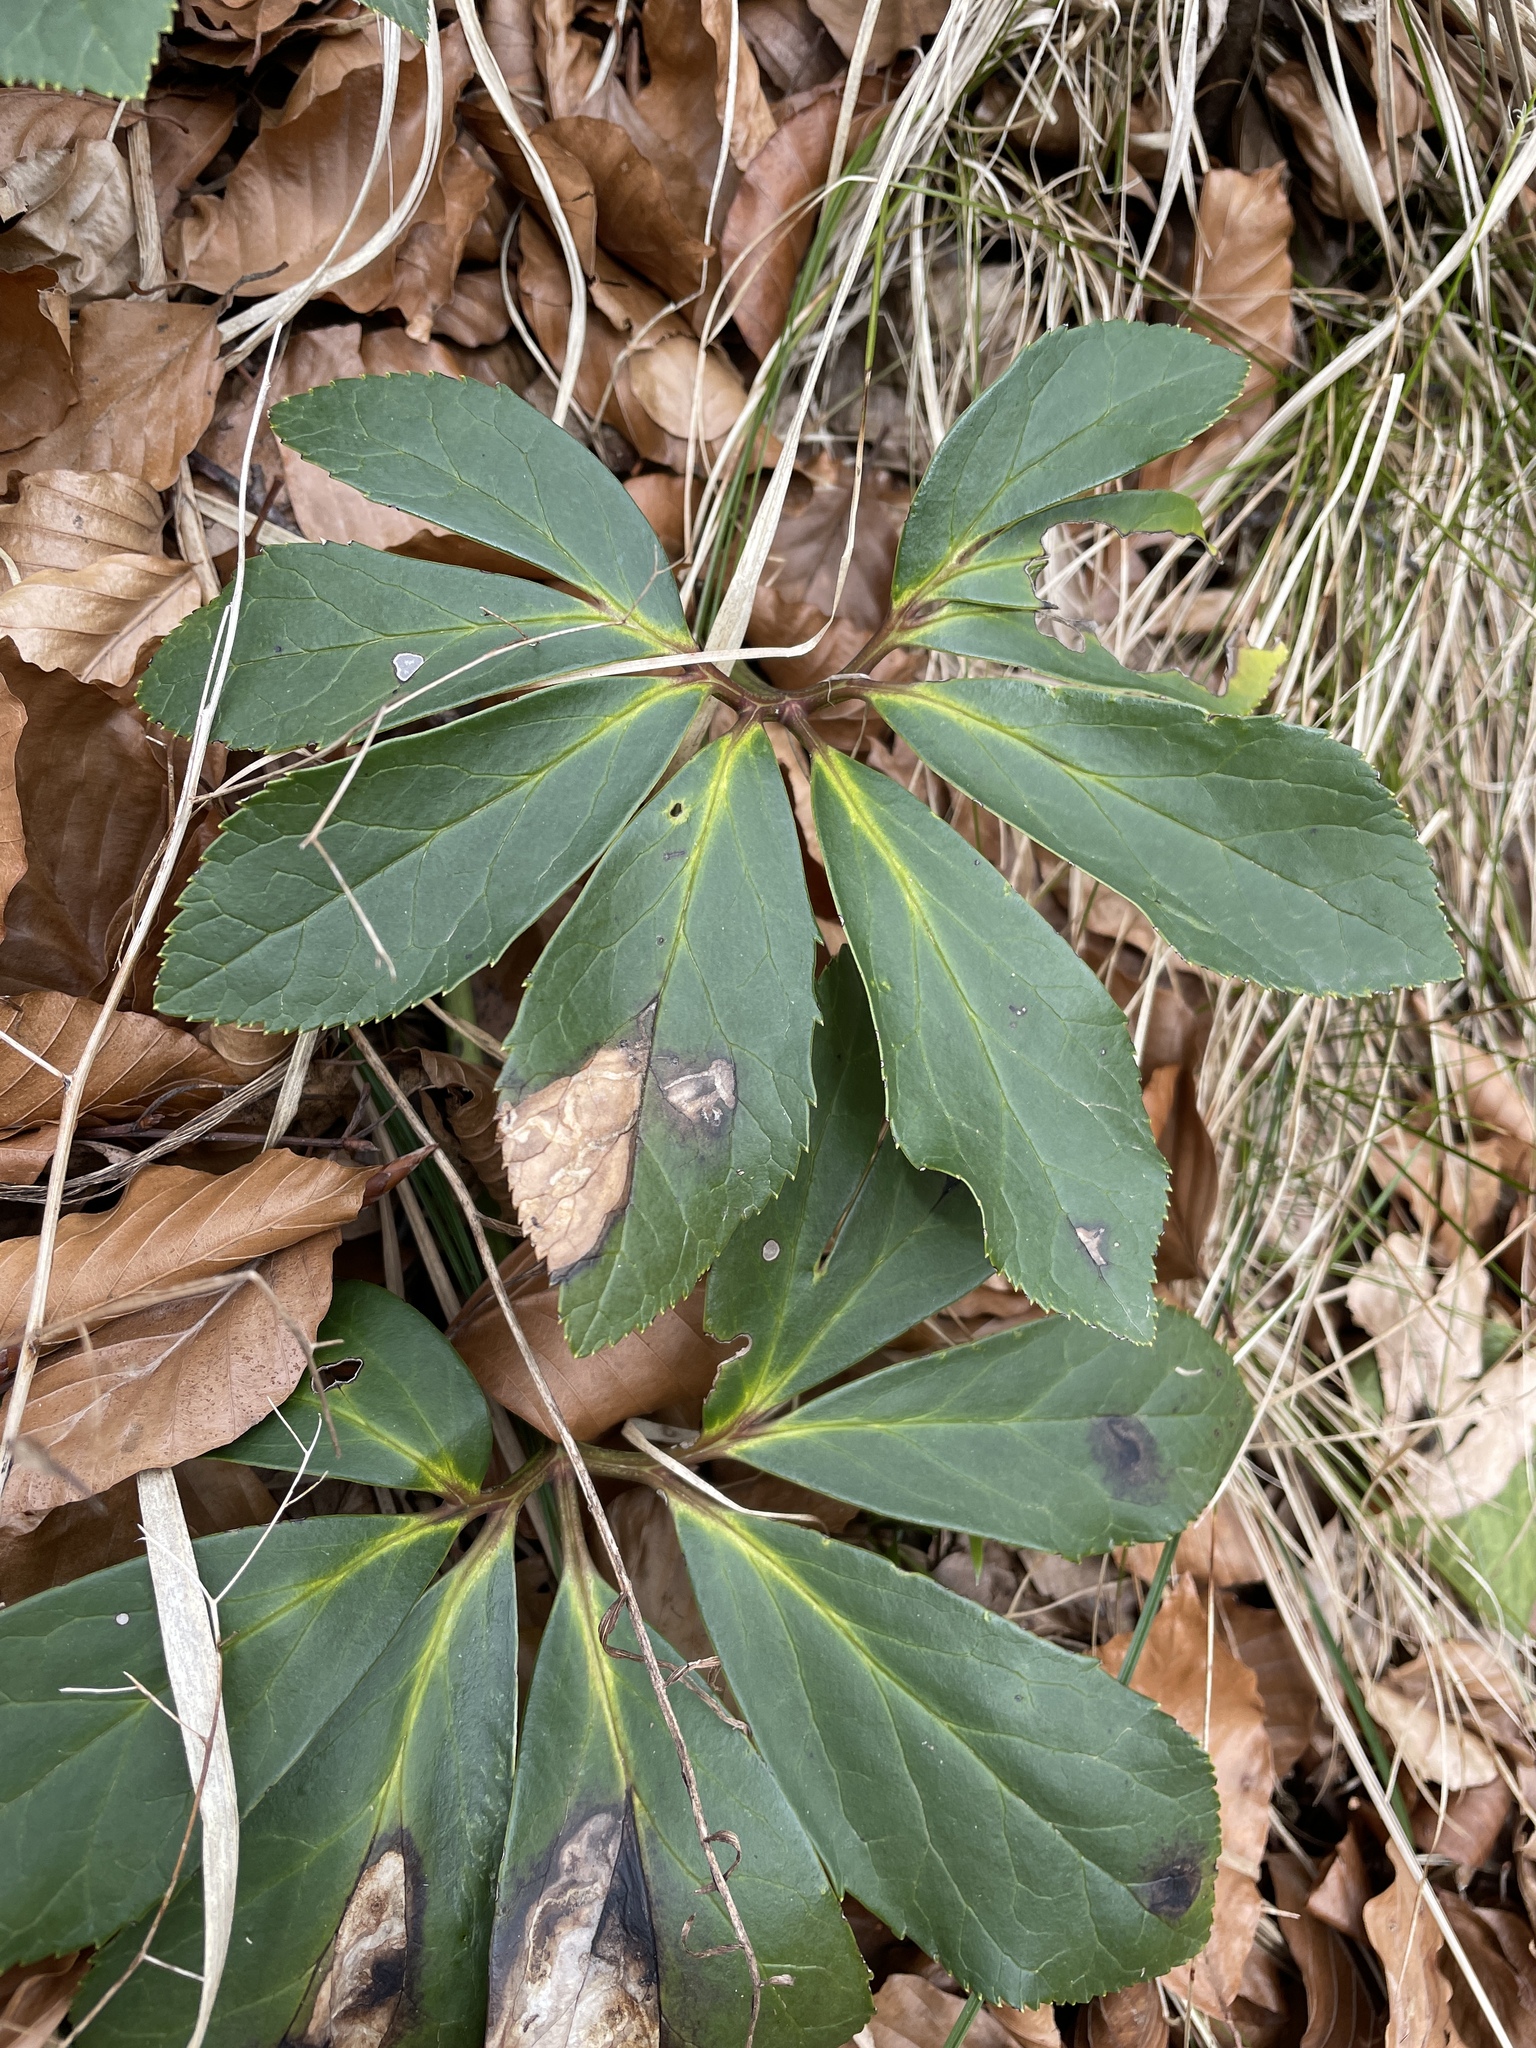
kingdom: Plantae
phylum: Tracheophyta
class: Magnoliopsida
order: Ranunculales
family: Ranunculaceae
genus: Helleborus
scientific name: Helleborus niger
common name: Black hellebore
